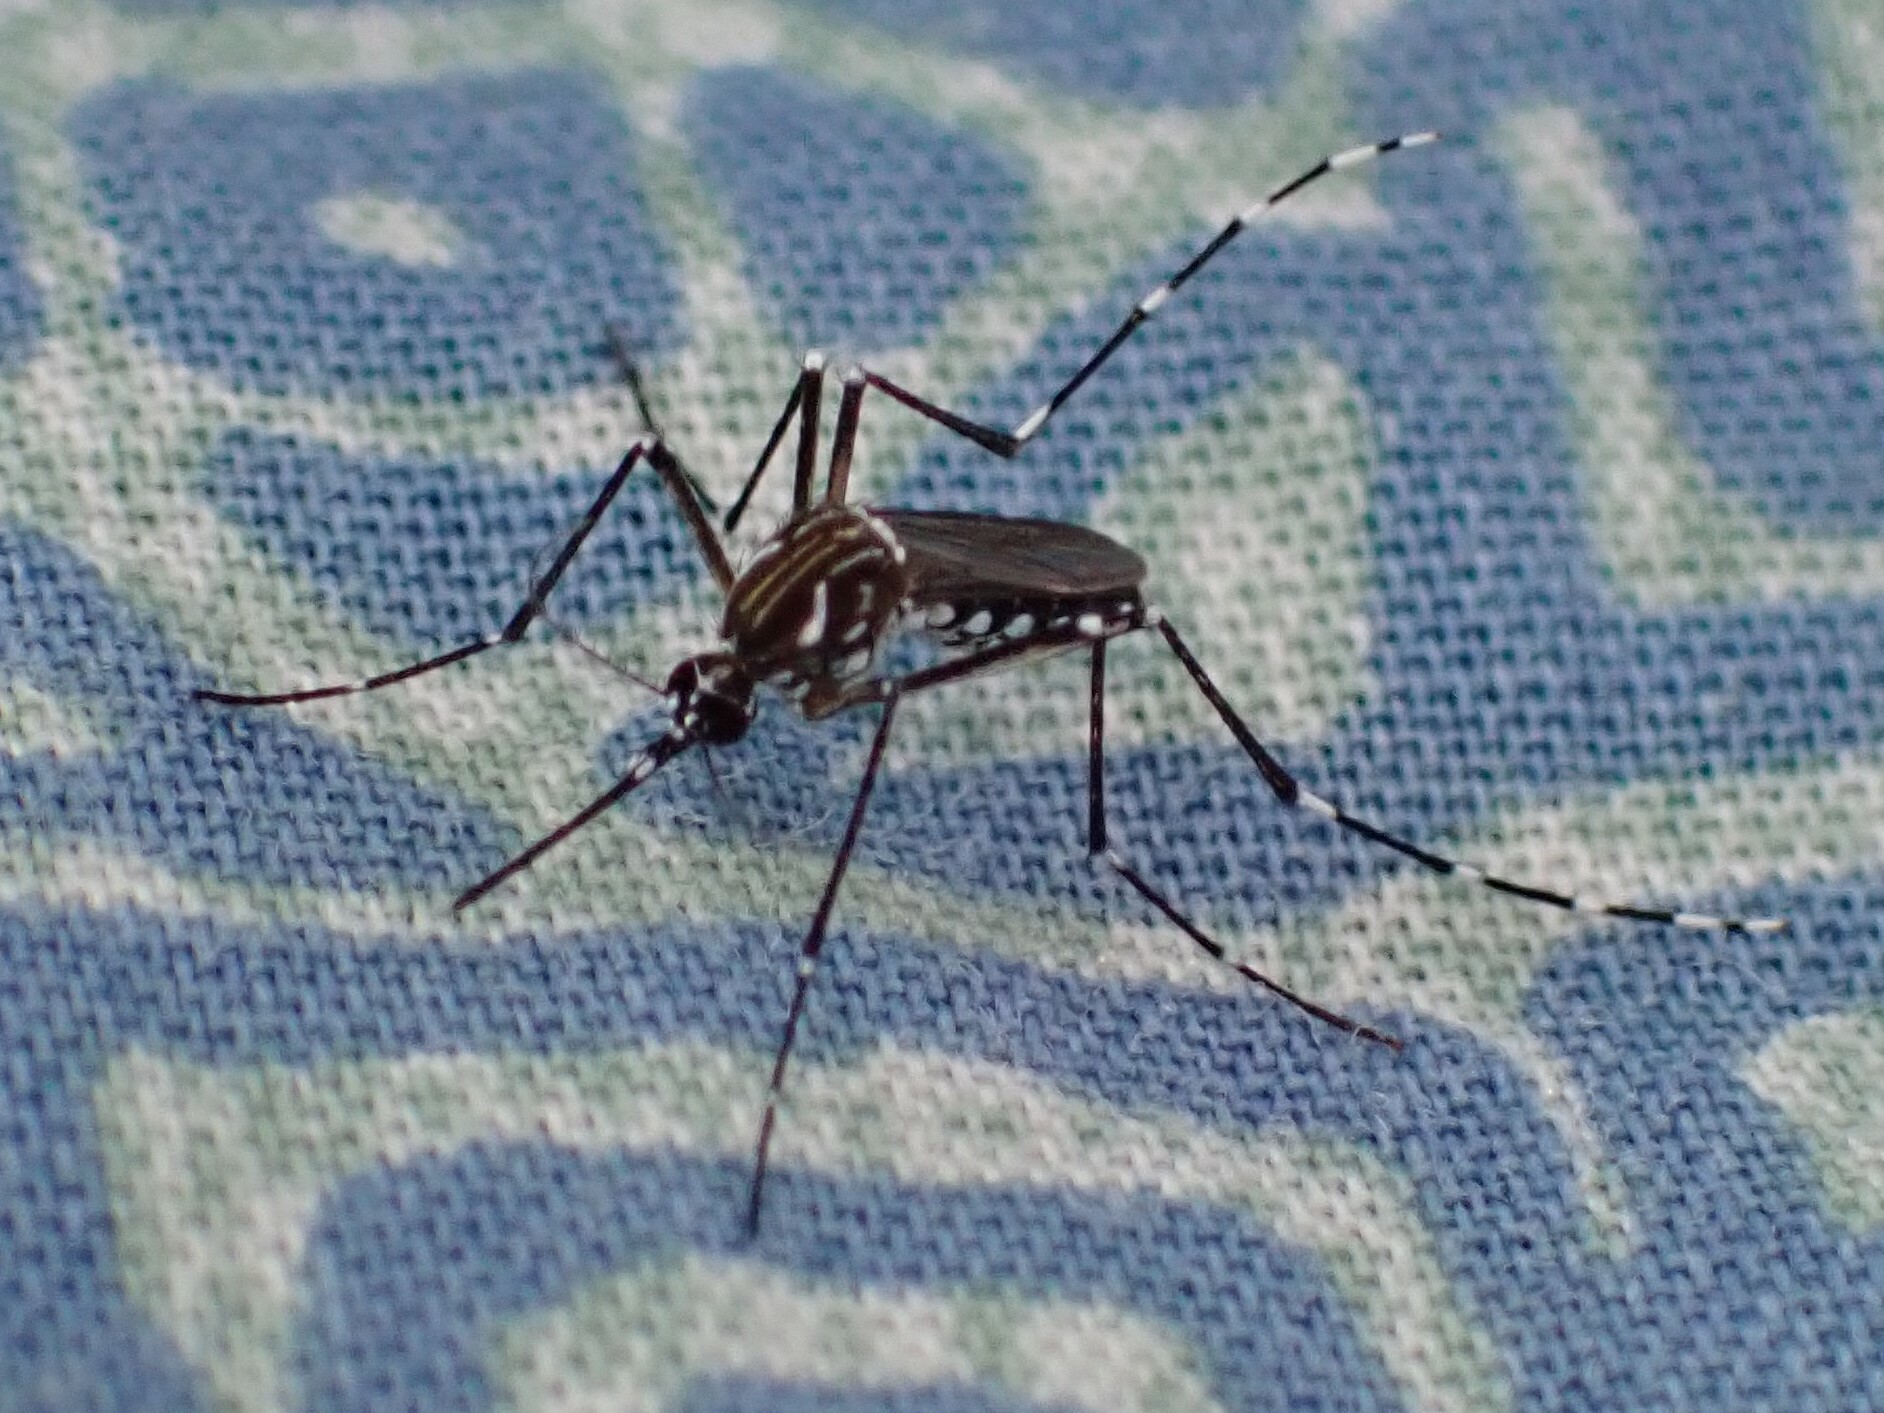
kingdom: Animalia
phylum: Arthropoda
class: Insecta
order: Diptera
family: Culicidae
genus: Aedes
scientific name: Aedes aegypti
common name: Yellow fever mosquito
